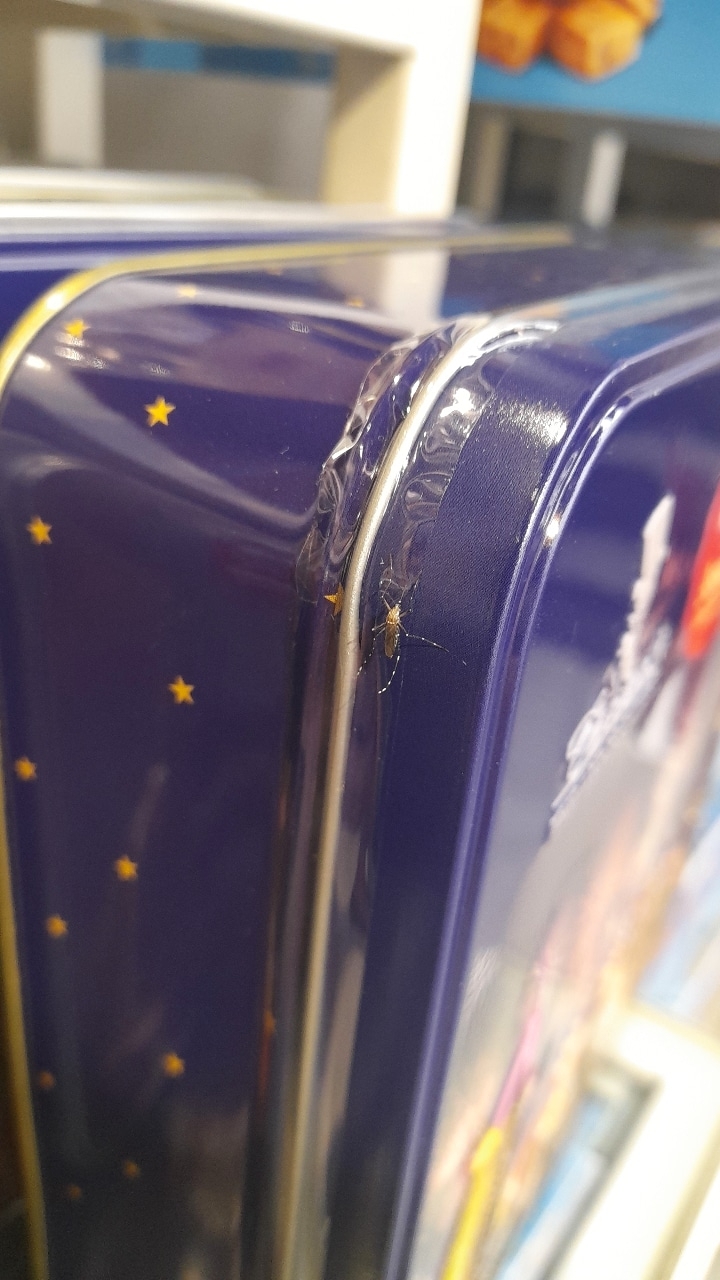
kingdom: Animalia
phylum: Arthropoda
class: Insecta
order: Diptera
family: Culicidae
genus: Aedes
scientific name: Aedes aegypti
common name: Yellow fever mosquito
